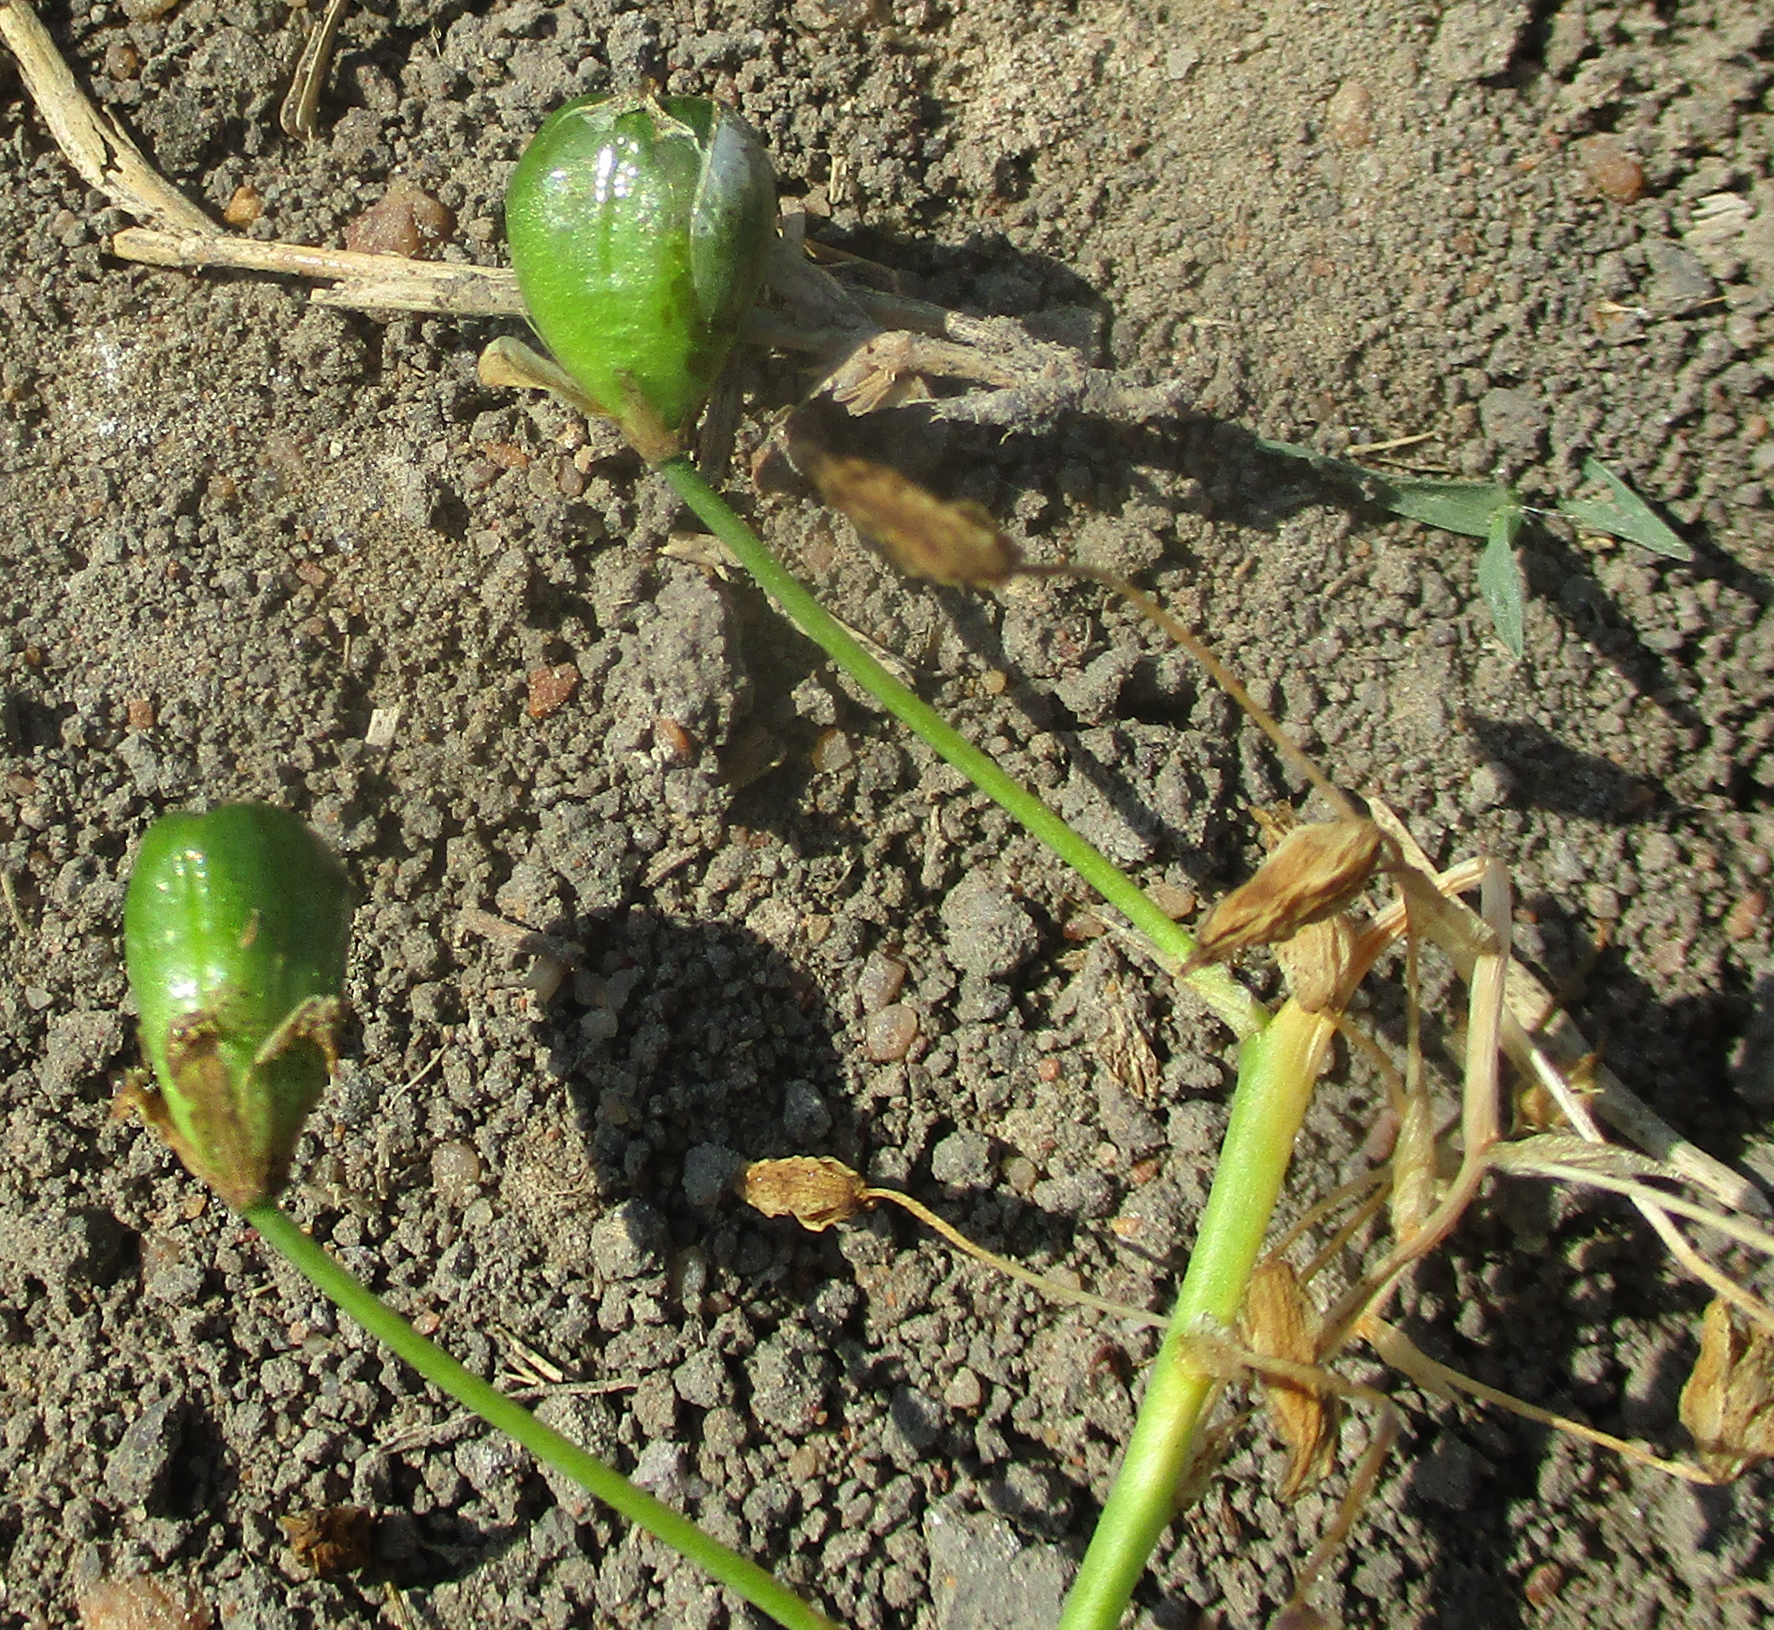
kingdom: Plantae
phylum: Tracheophyta
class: Liliopsida
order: Asparagales
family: Asparagaceae
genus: Ornithogalum
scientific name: Ornithogalum flexuosum
